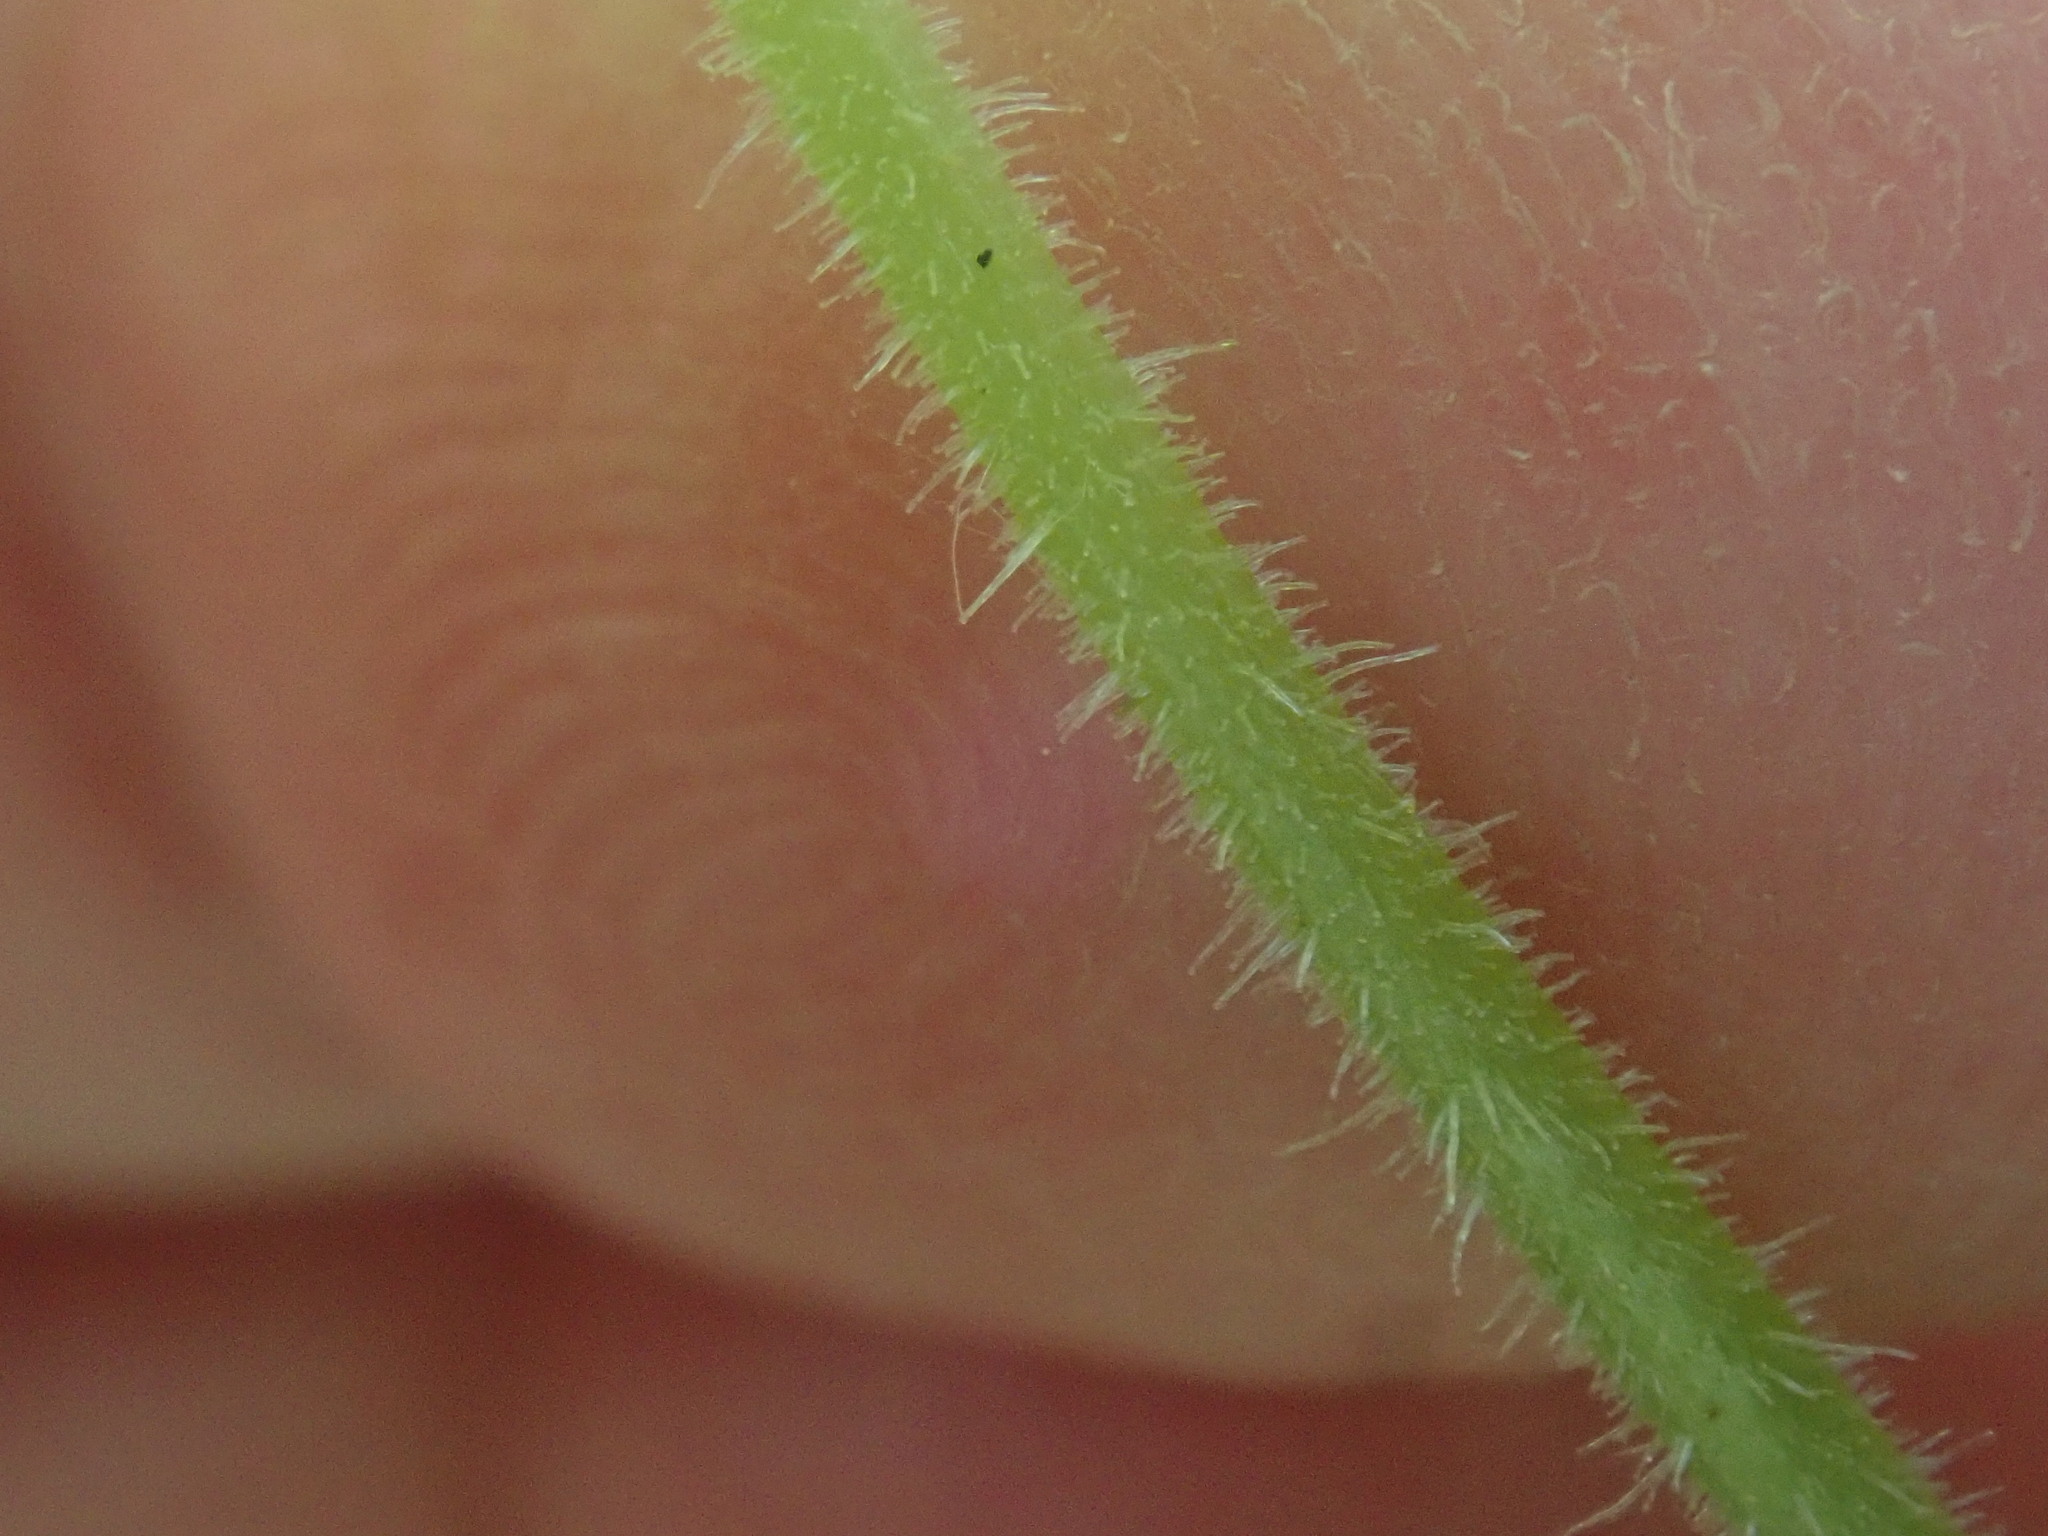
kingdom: Plantae
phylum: Tracheophyta
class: Magnoliopsida
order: Saxifragales
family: Saxifragaceae
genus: Tiarella
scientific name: Tiarella stolonifera
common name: Stoloniferous foamflower
